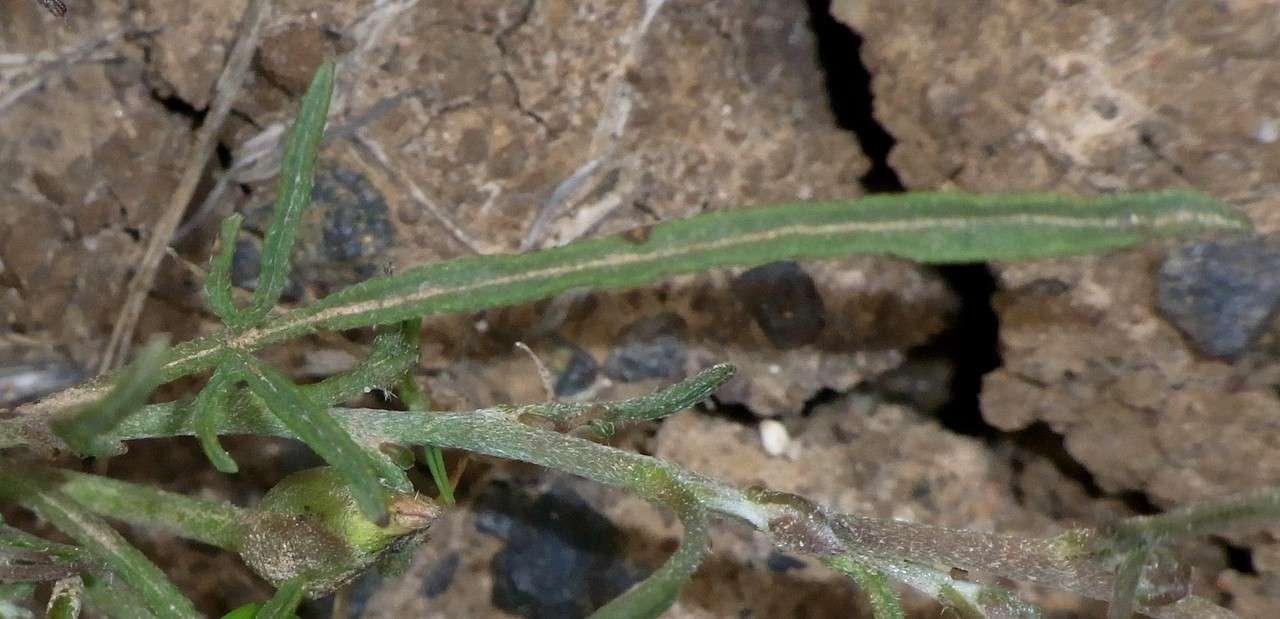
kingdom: Plantae
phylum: Tracheophyta
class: Magnoliopsida
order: Solanales
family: Convolvulaceae
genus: Convolvulus
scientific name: Convolvulus angustissimus
